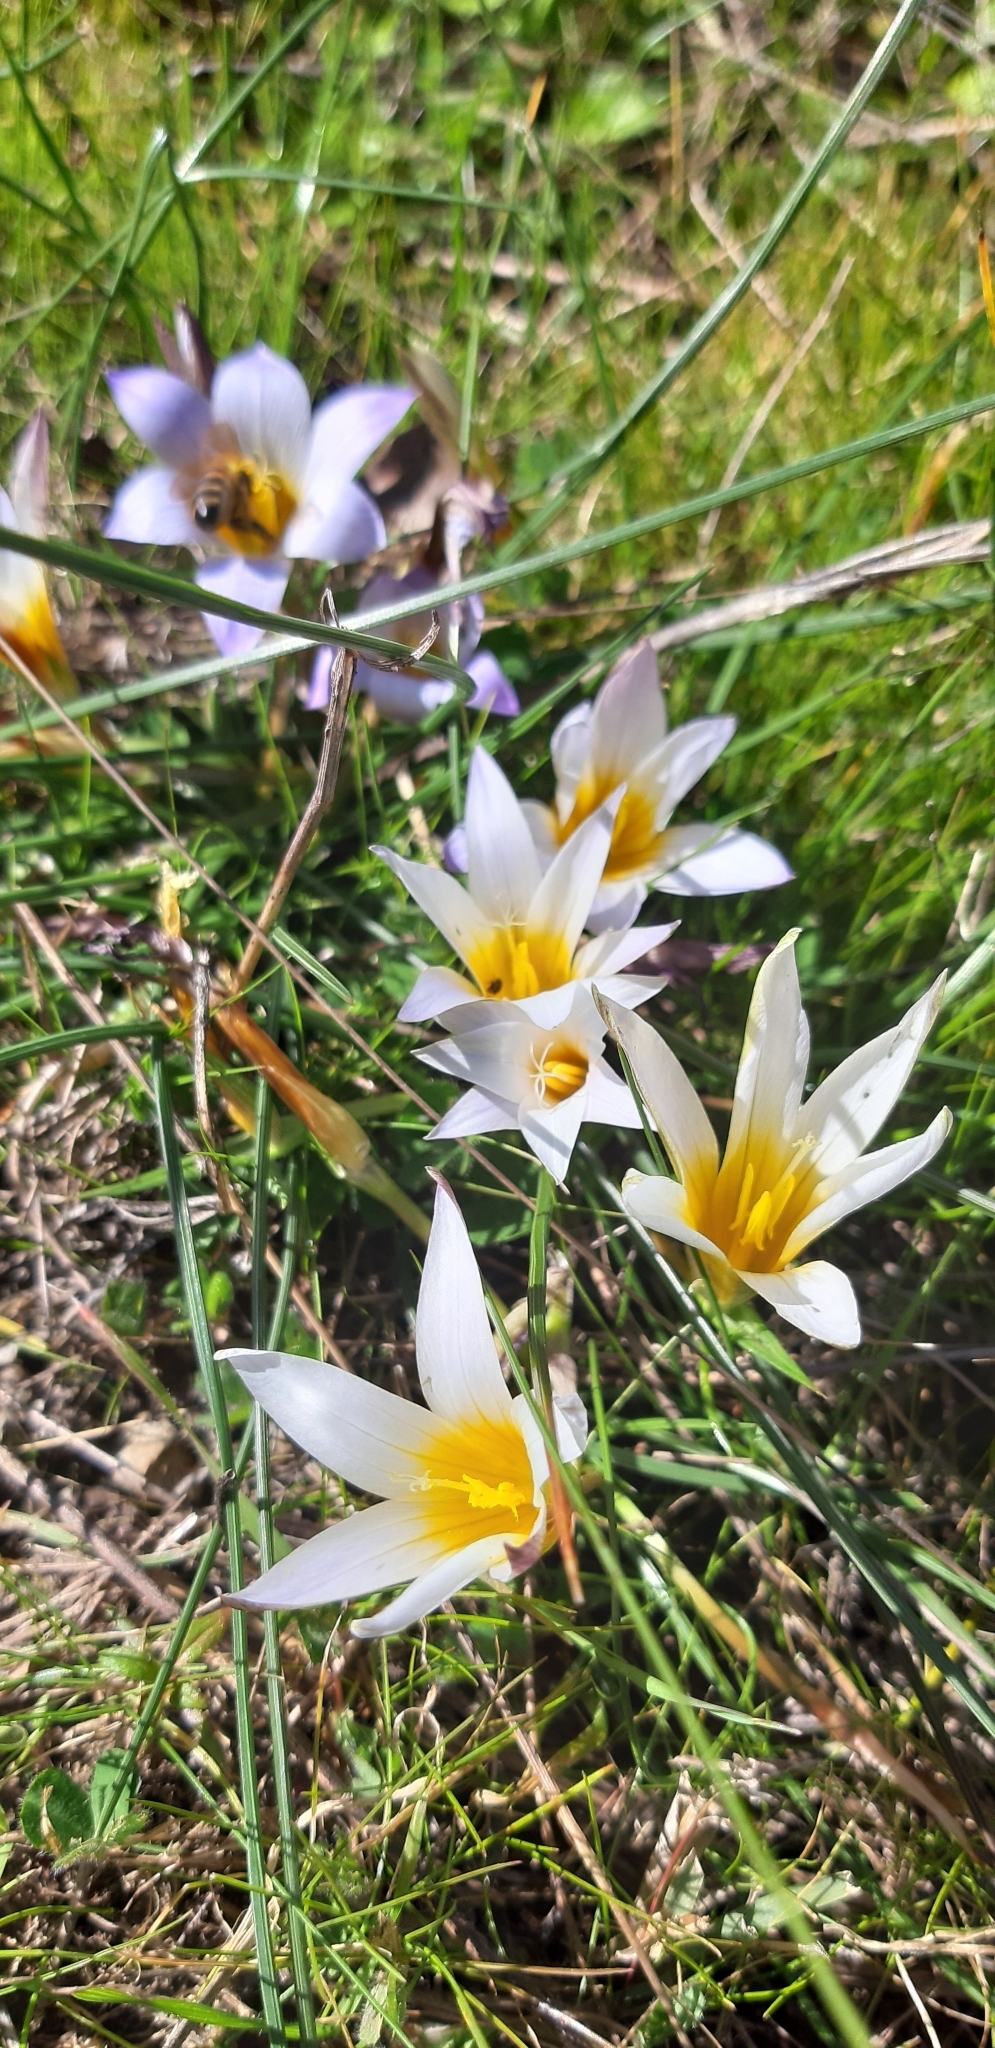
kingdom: Plantae
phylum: Tracheophyta
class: Liliopsida
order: Asparagales
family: Iridaceae
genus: Romulea
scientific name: Romulea bulbocodium
